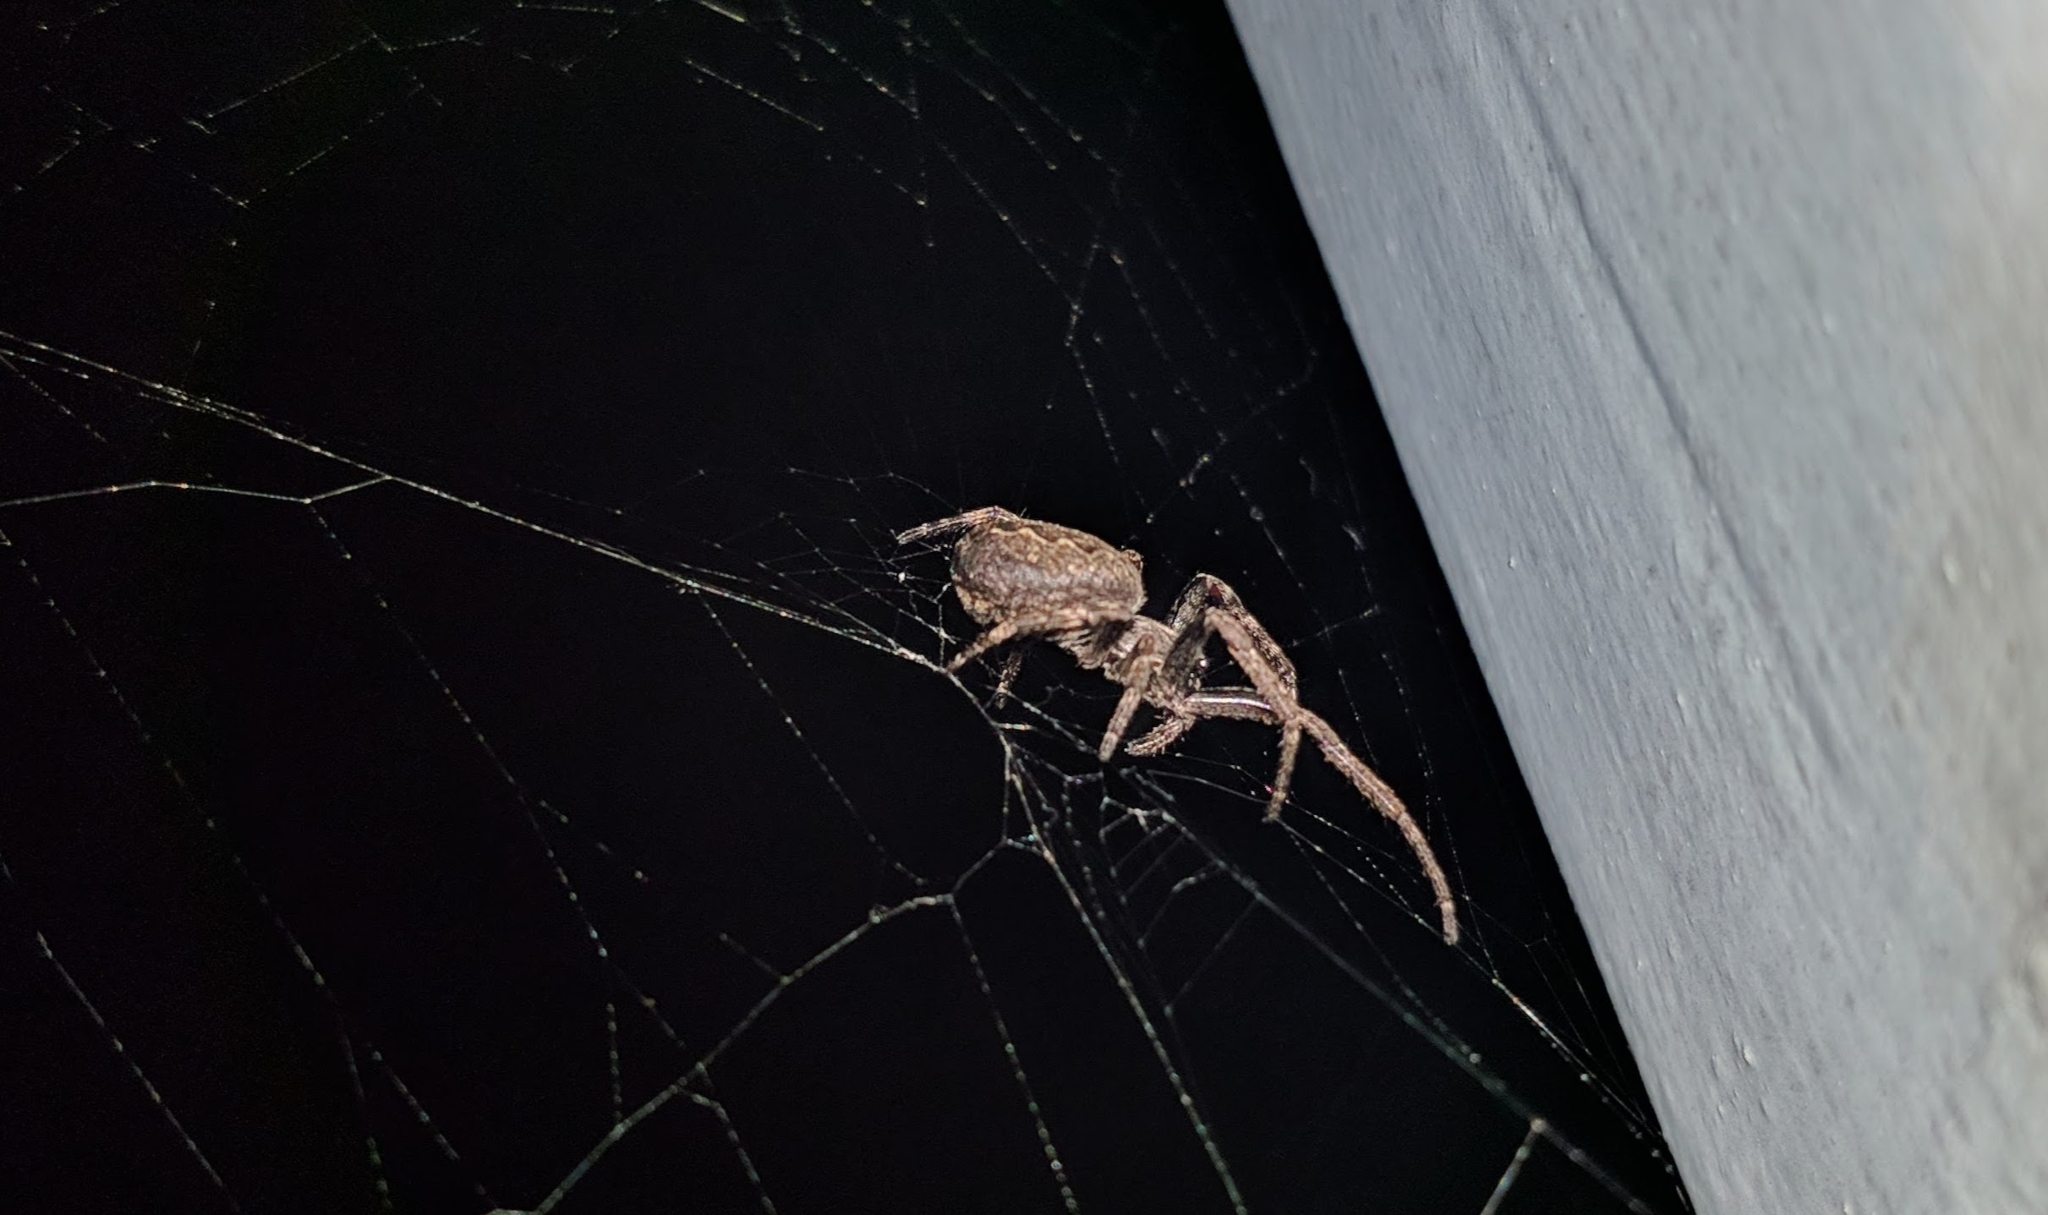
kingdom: Animalia
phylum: Arthropoda
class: Arachnida
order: Araneae
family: Araneidae
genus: Nuctenea
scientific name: Nuctenea umbratica
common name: Toad spider
